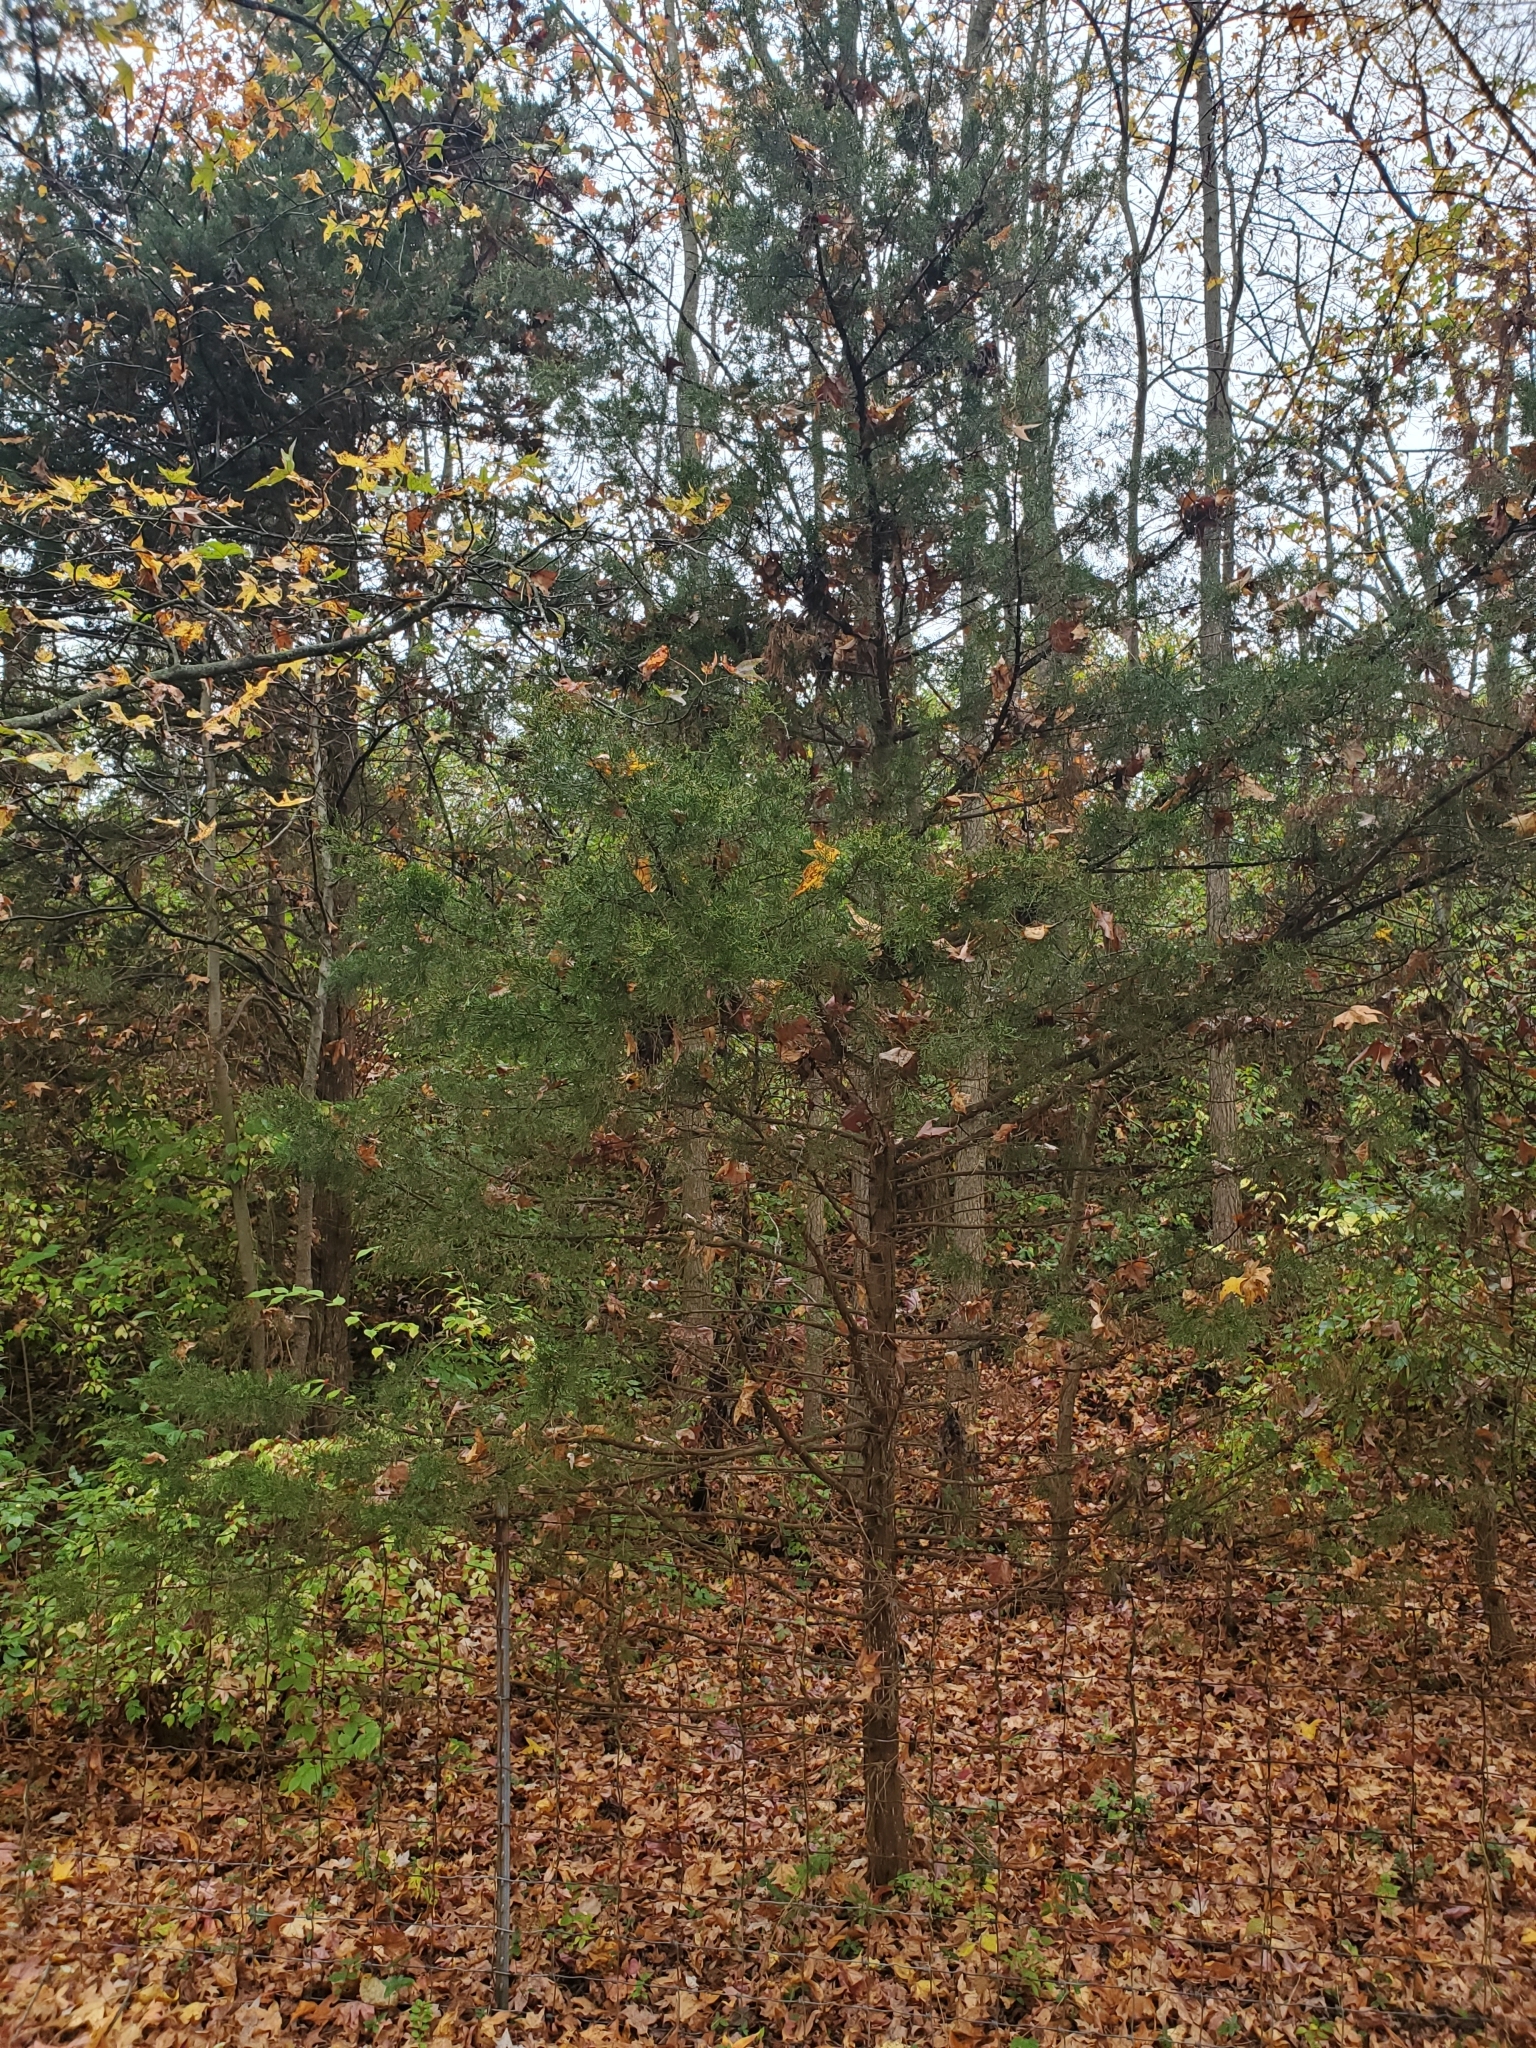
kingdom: Plantae
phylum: Tracheophyta
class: Pinopsida
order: Pinales
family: Cupressaceae
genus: Juniperus
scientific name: Juniperus virginiana
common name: Red juniper
